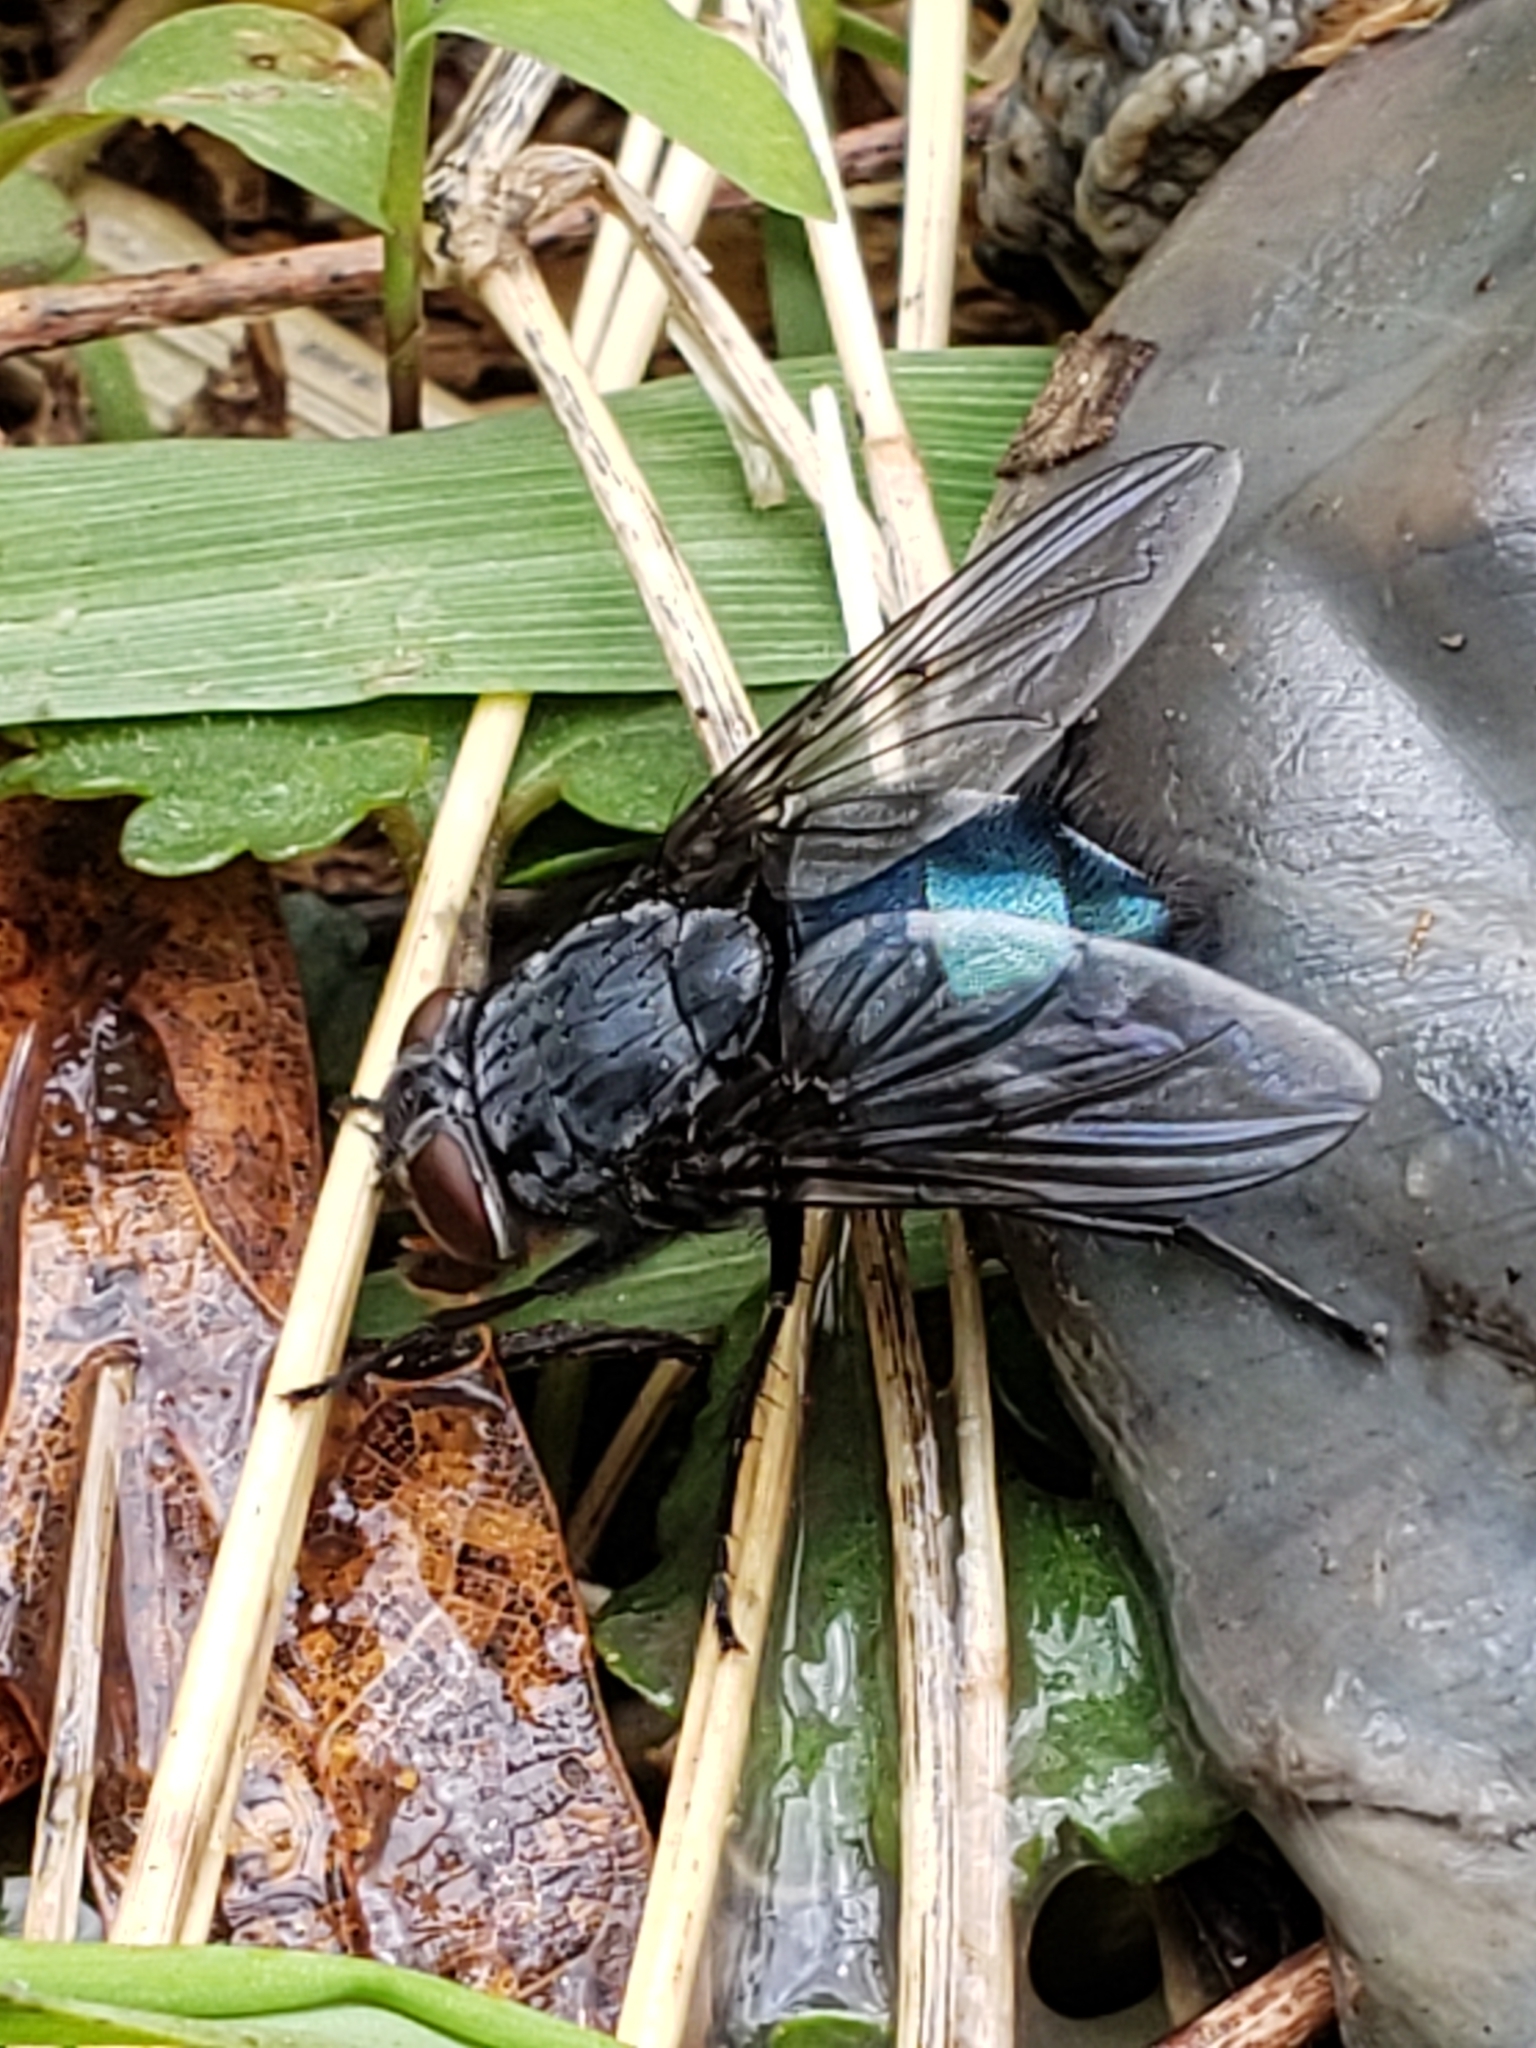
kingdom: Animalia
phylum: Arthropoda
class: Insecta
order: Diptera
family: Calliphoridae
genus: Calliphora
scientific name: Calliphora vomitoria
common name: Blue bottle fly
